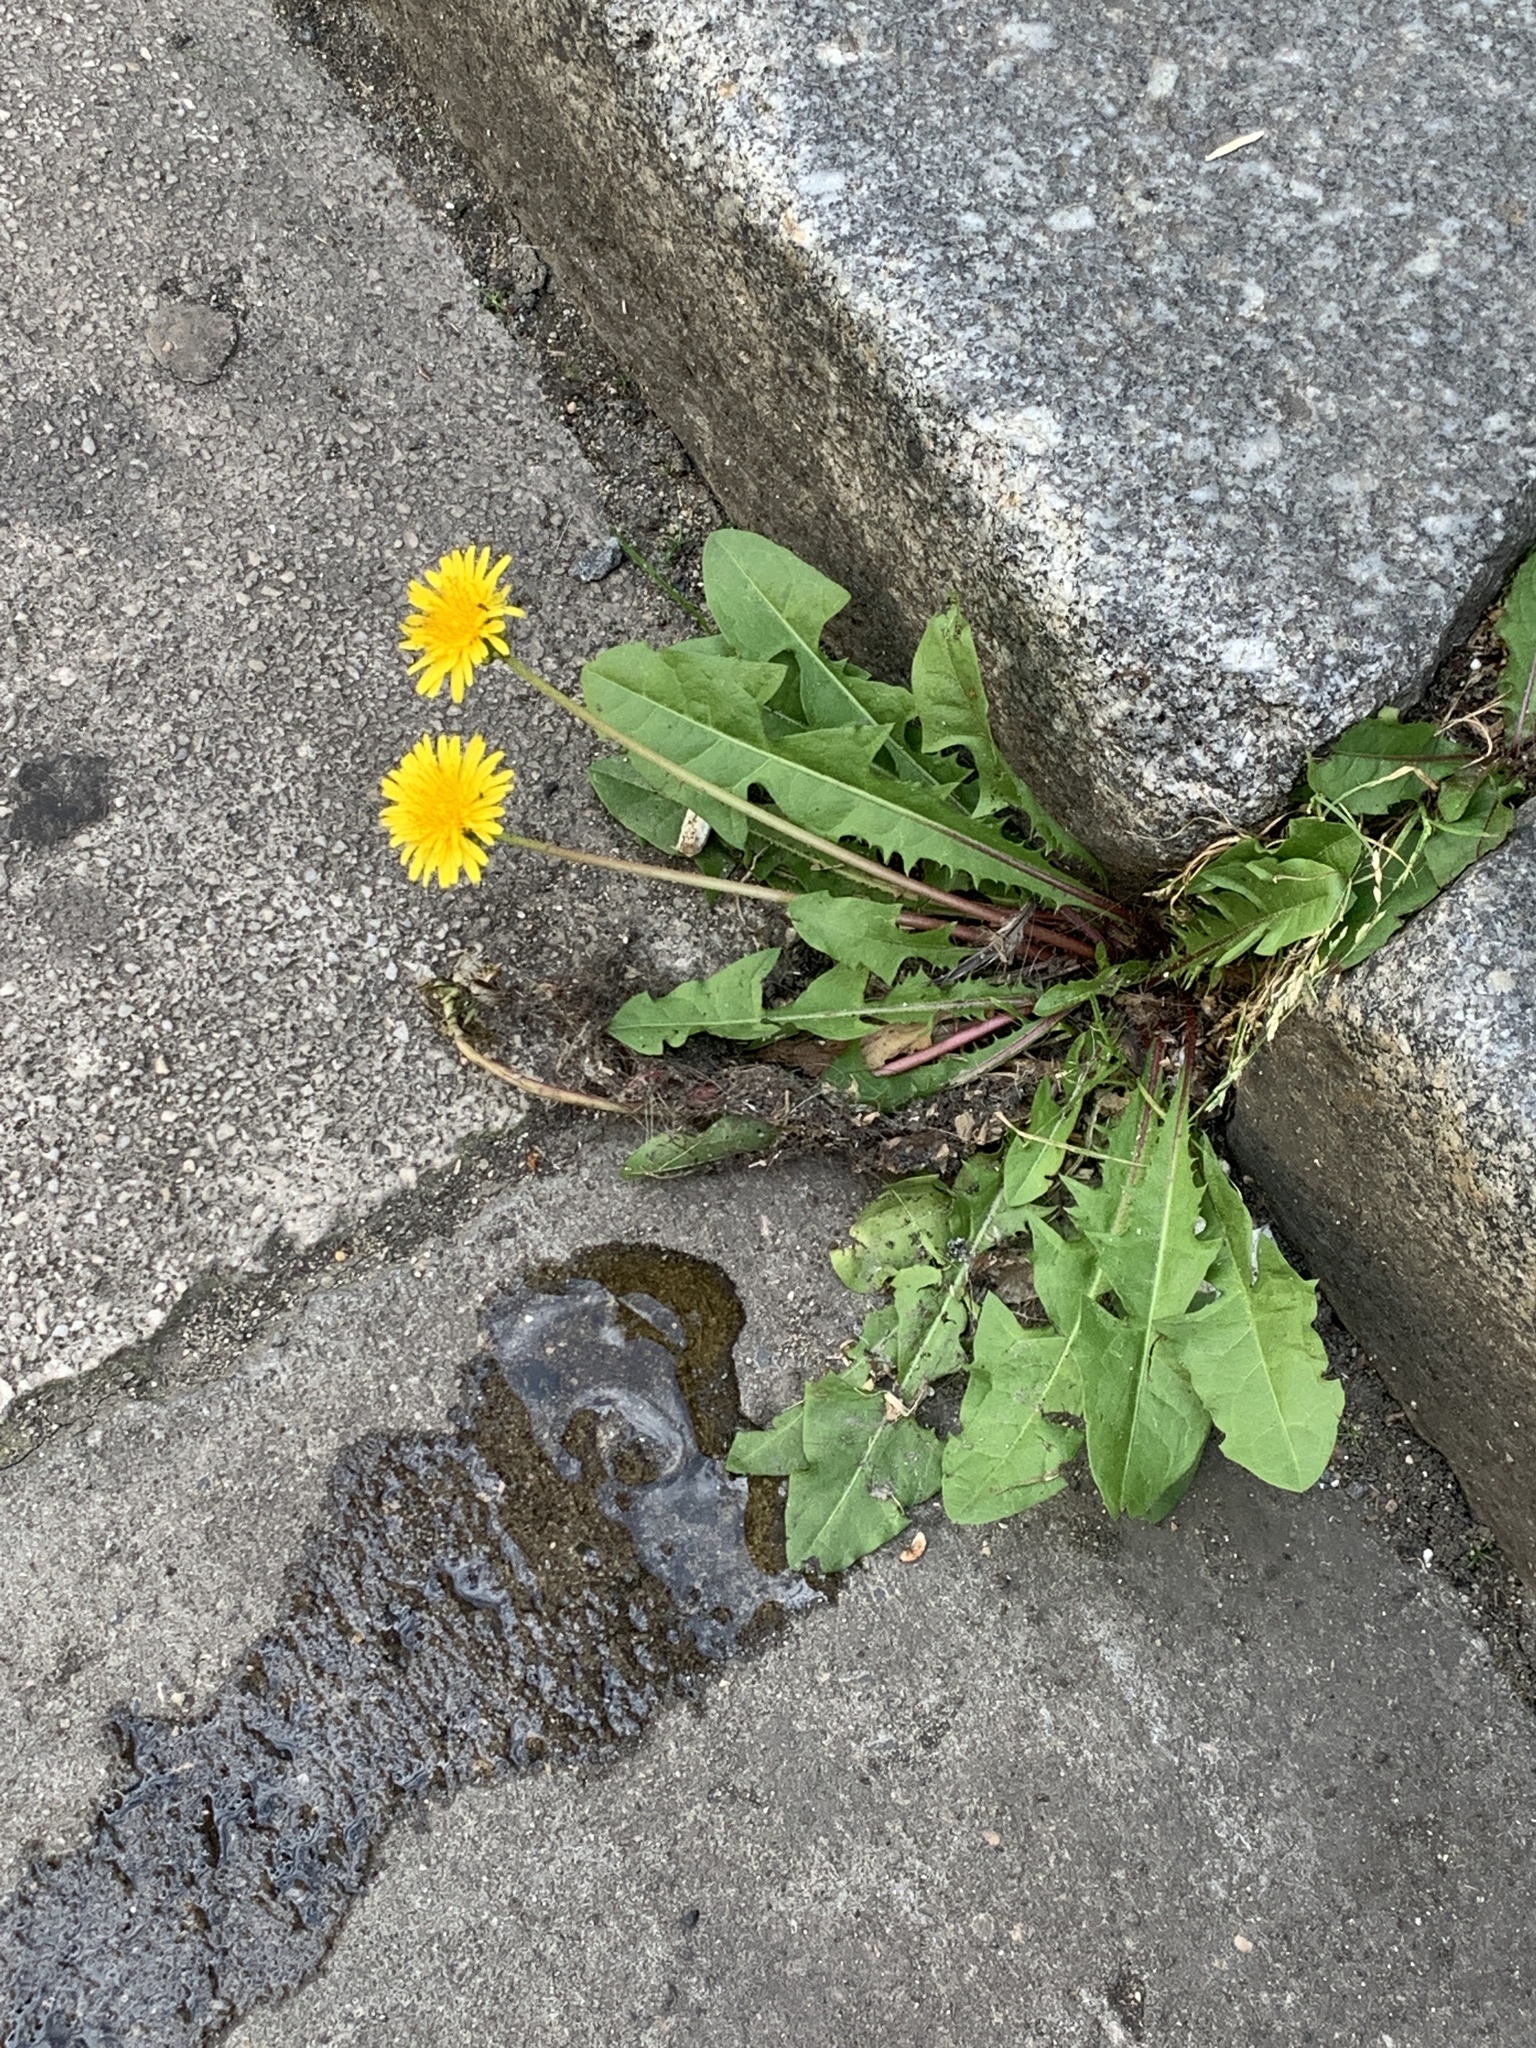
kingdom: Plantae
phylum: Tracheophyta
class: Magnoliopsida
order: Asterales
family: Asteraceae
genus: Taraxacum
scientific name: Taraxacum officinale
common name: Common dandelion
